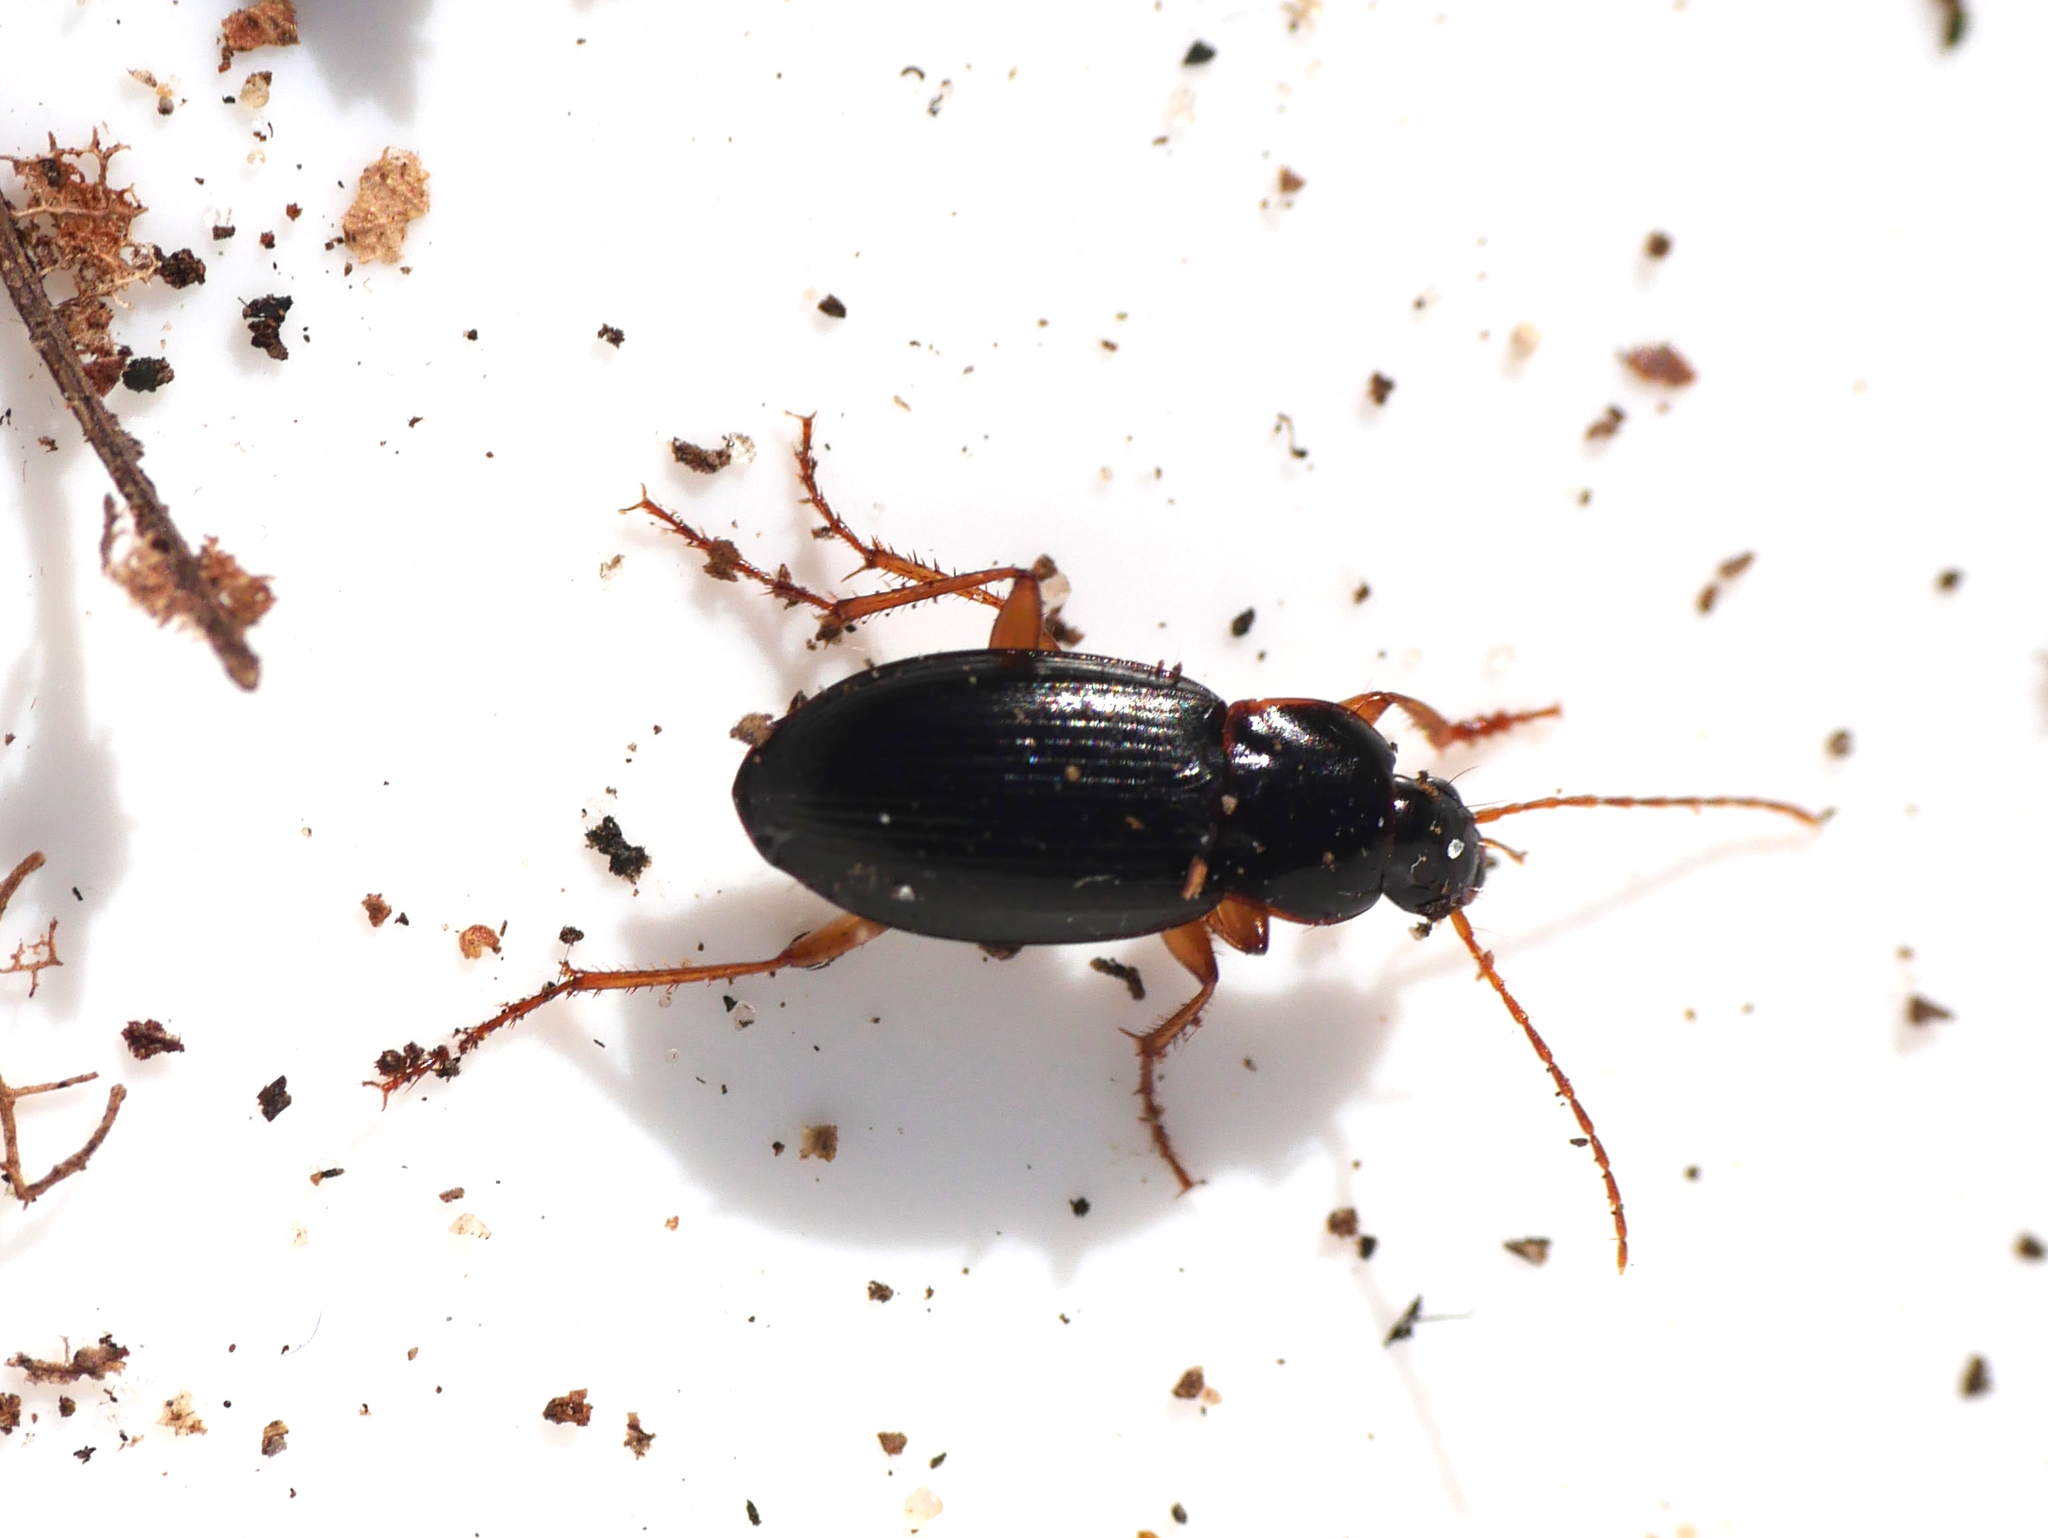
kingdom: Animalia
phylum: Arthropoda
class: Insecta
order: Coleoptera
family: Carabidae
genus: Calathus
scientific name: Calathus micropterus
